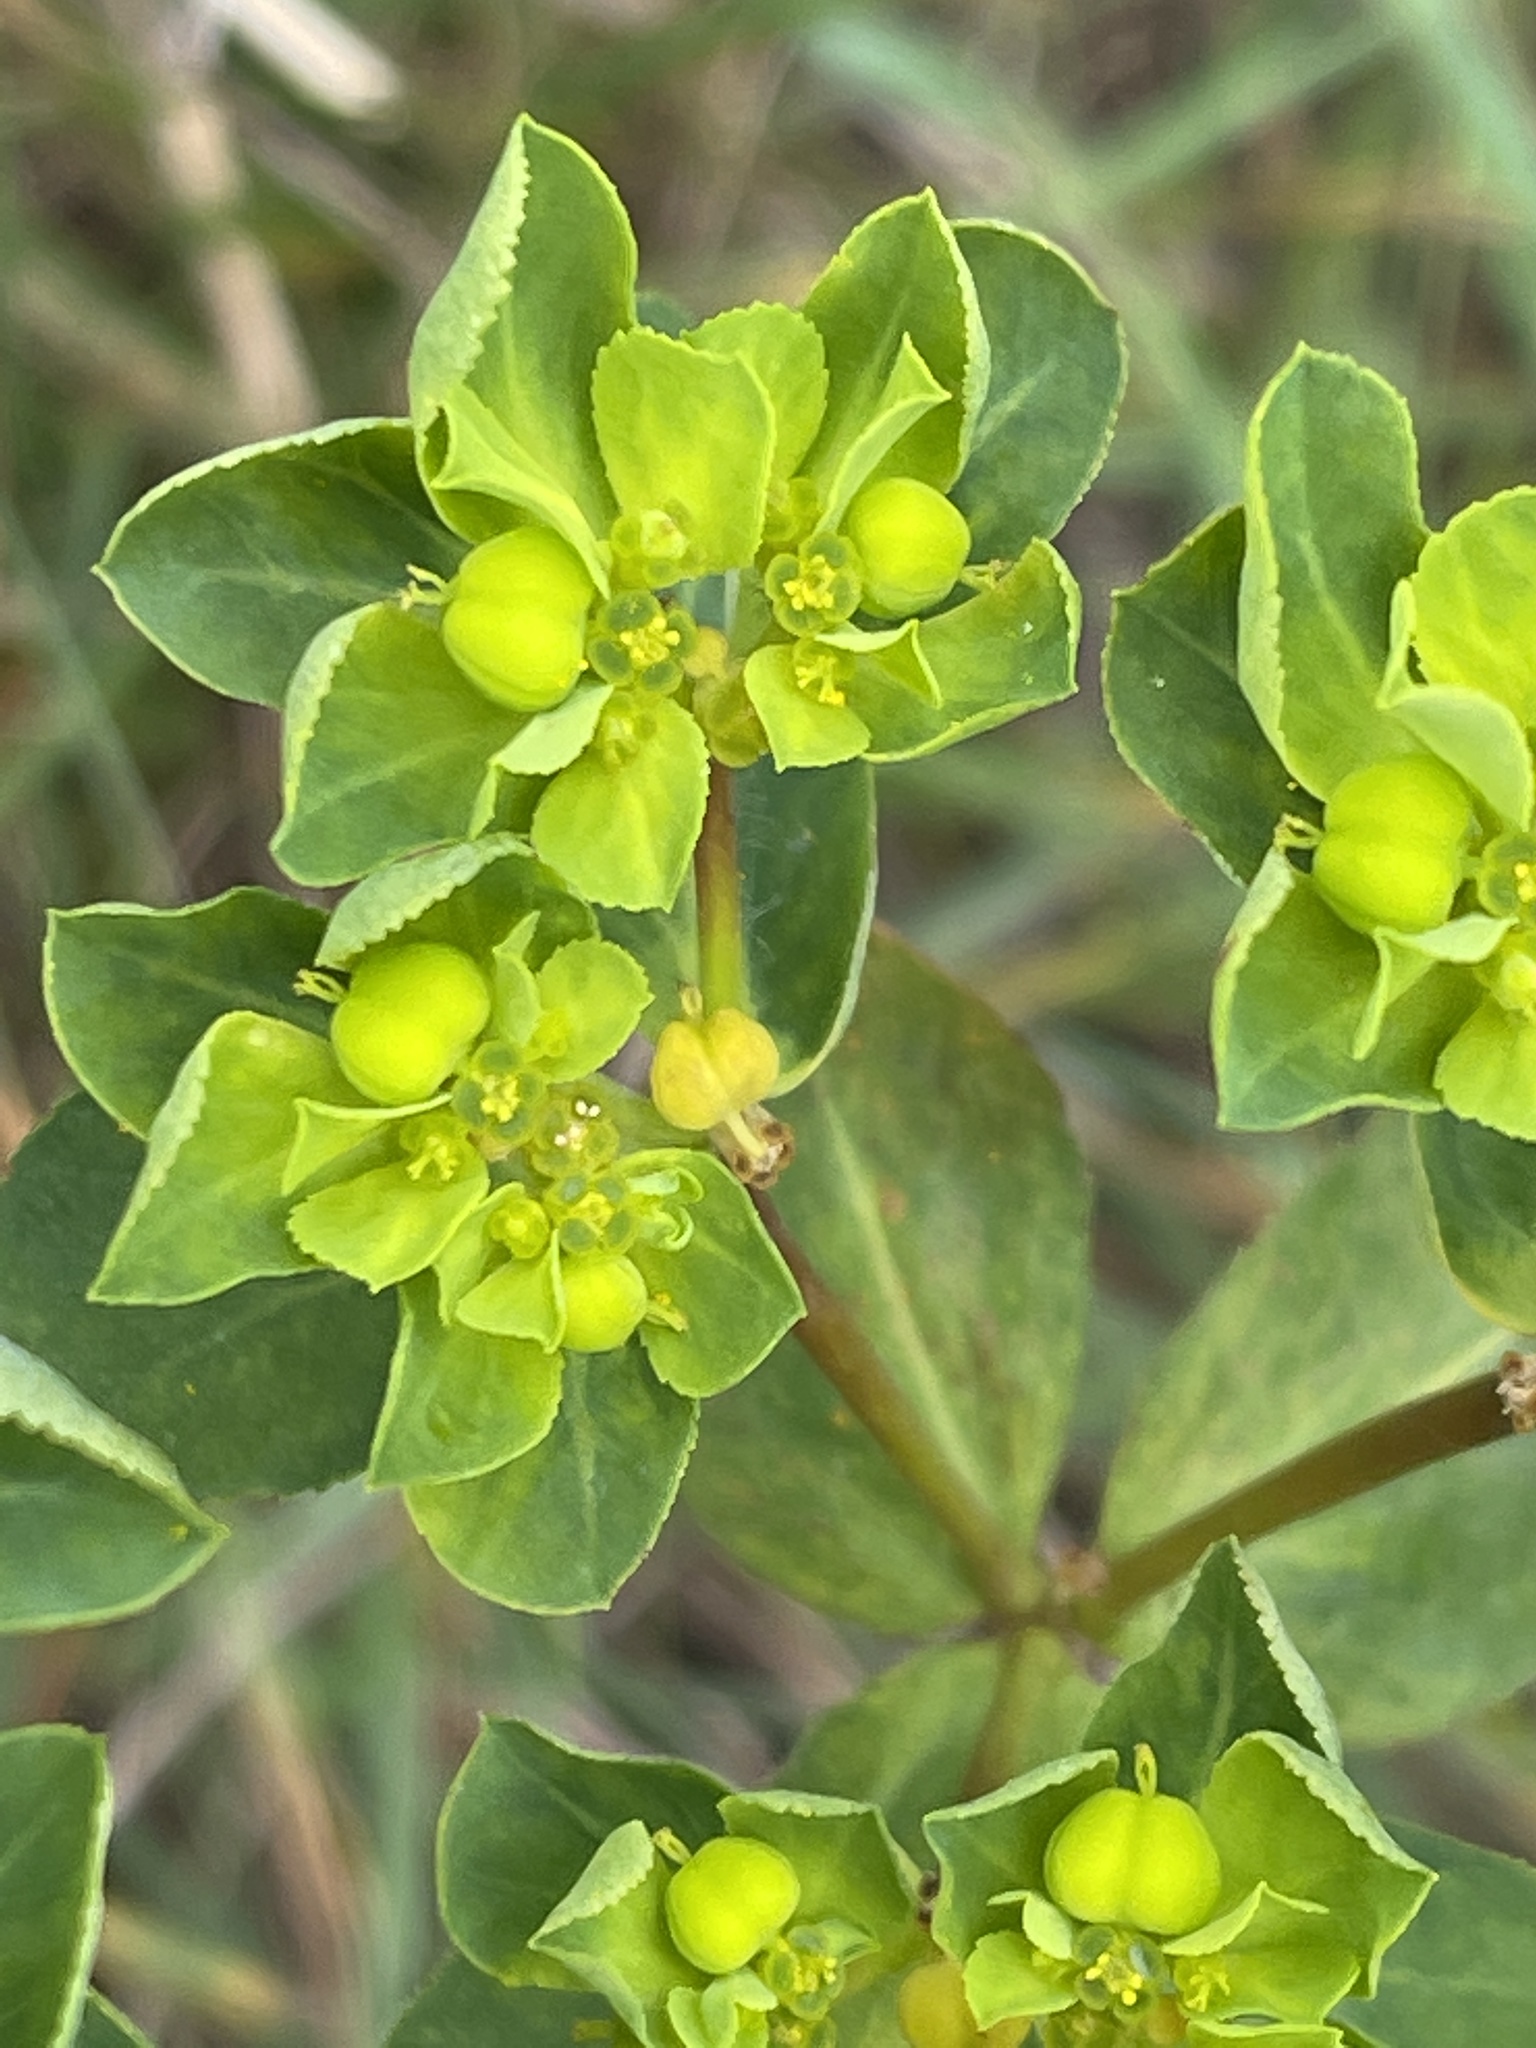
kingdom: Plantae
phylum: Tracheophyta
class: Magnoliopsida
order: Malpighiales
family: Euphorbiaceae
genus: Euphorbia
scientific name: Euphorbia helioscopia
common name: Sun spurge
